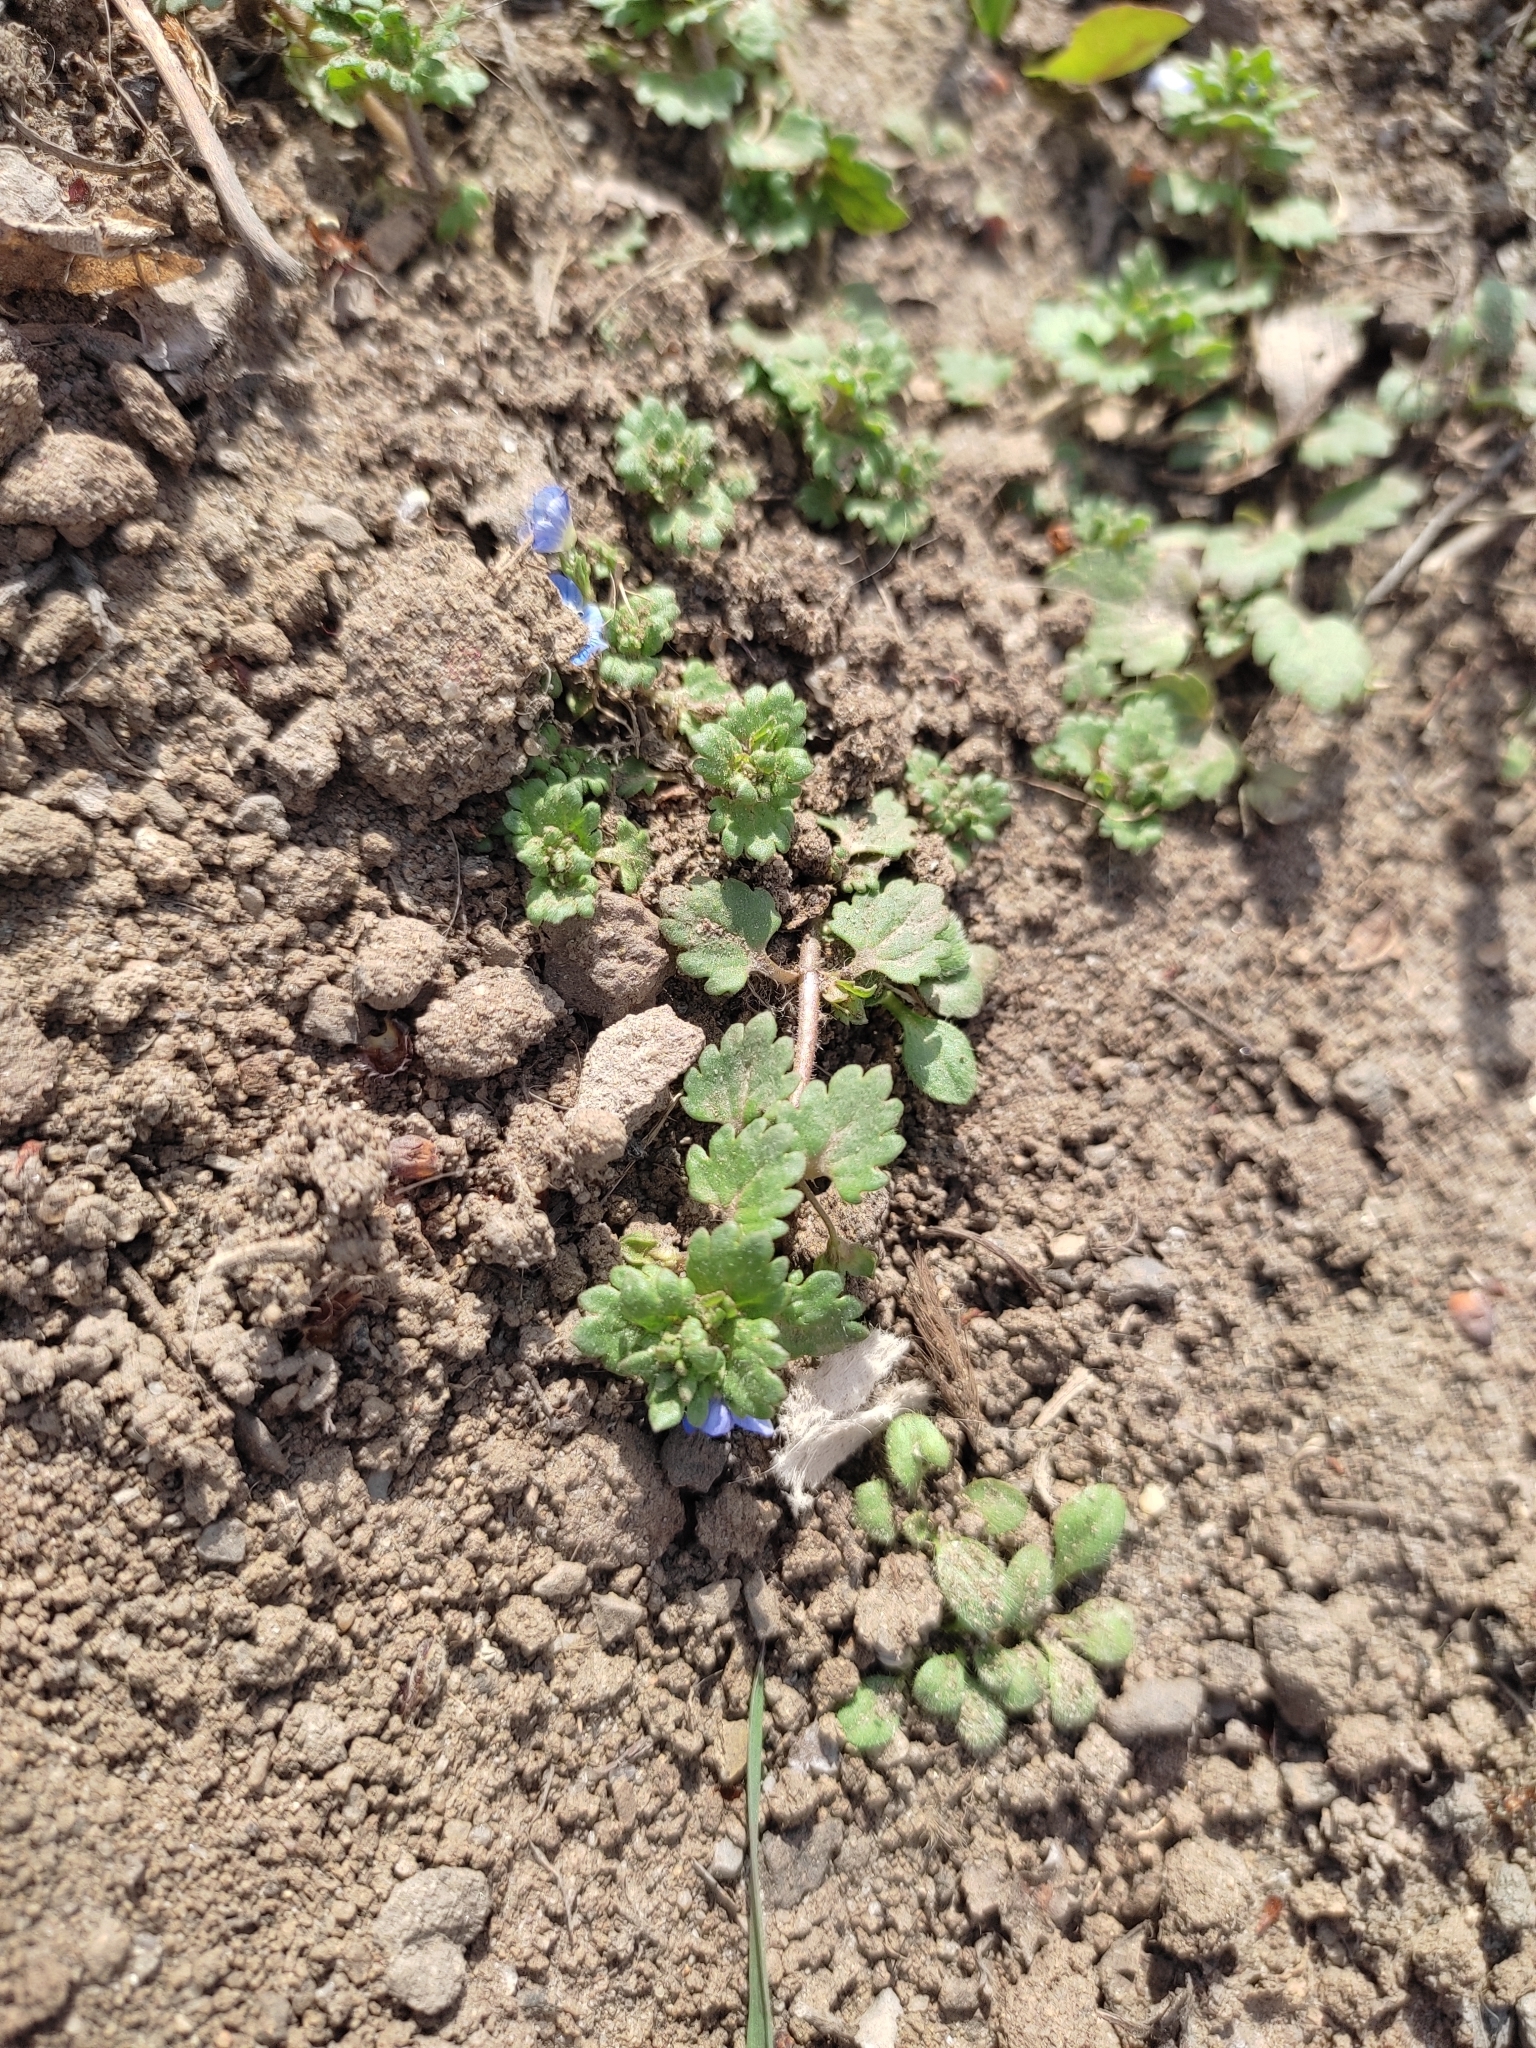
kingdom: Plantae
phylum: Tracheophyta
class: Magnoliopsida
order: Lamiales
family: Plantaginaceae
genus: Veronica
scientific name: Veronica polita
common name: Grey field-speedwell
